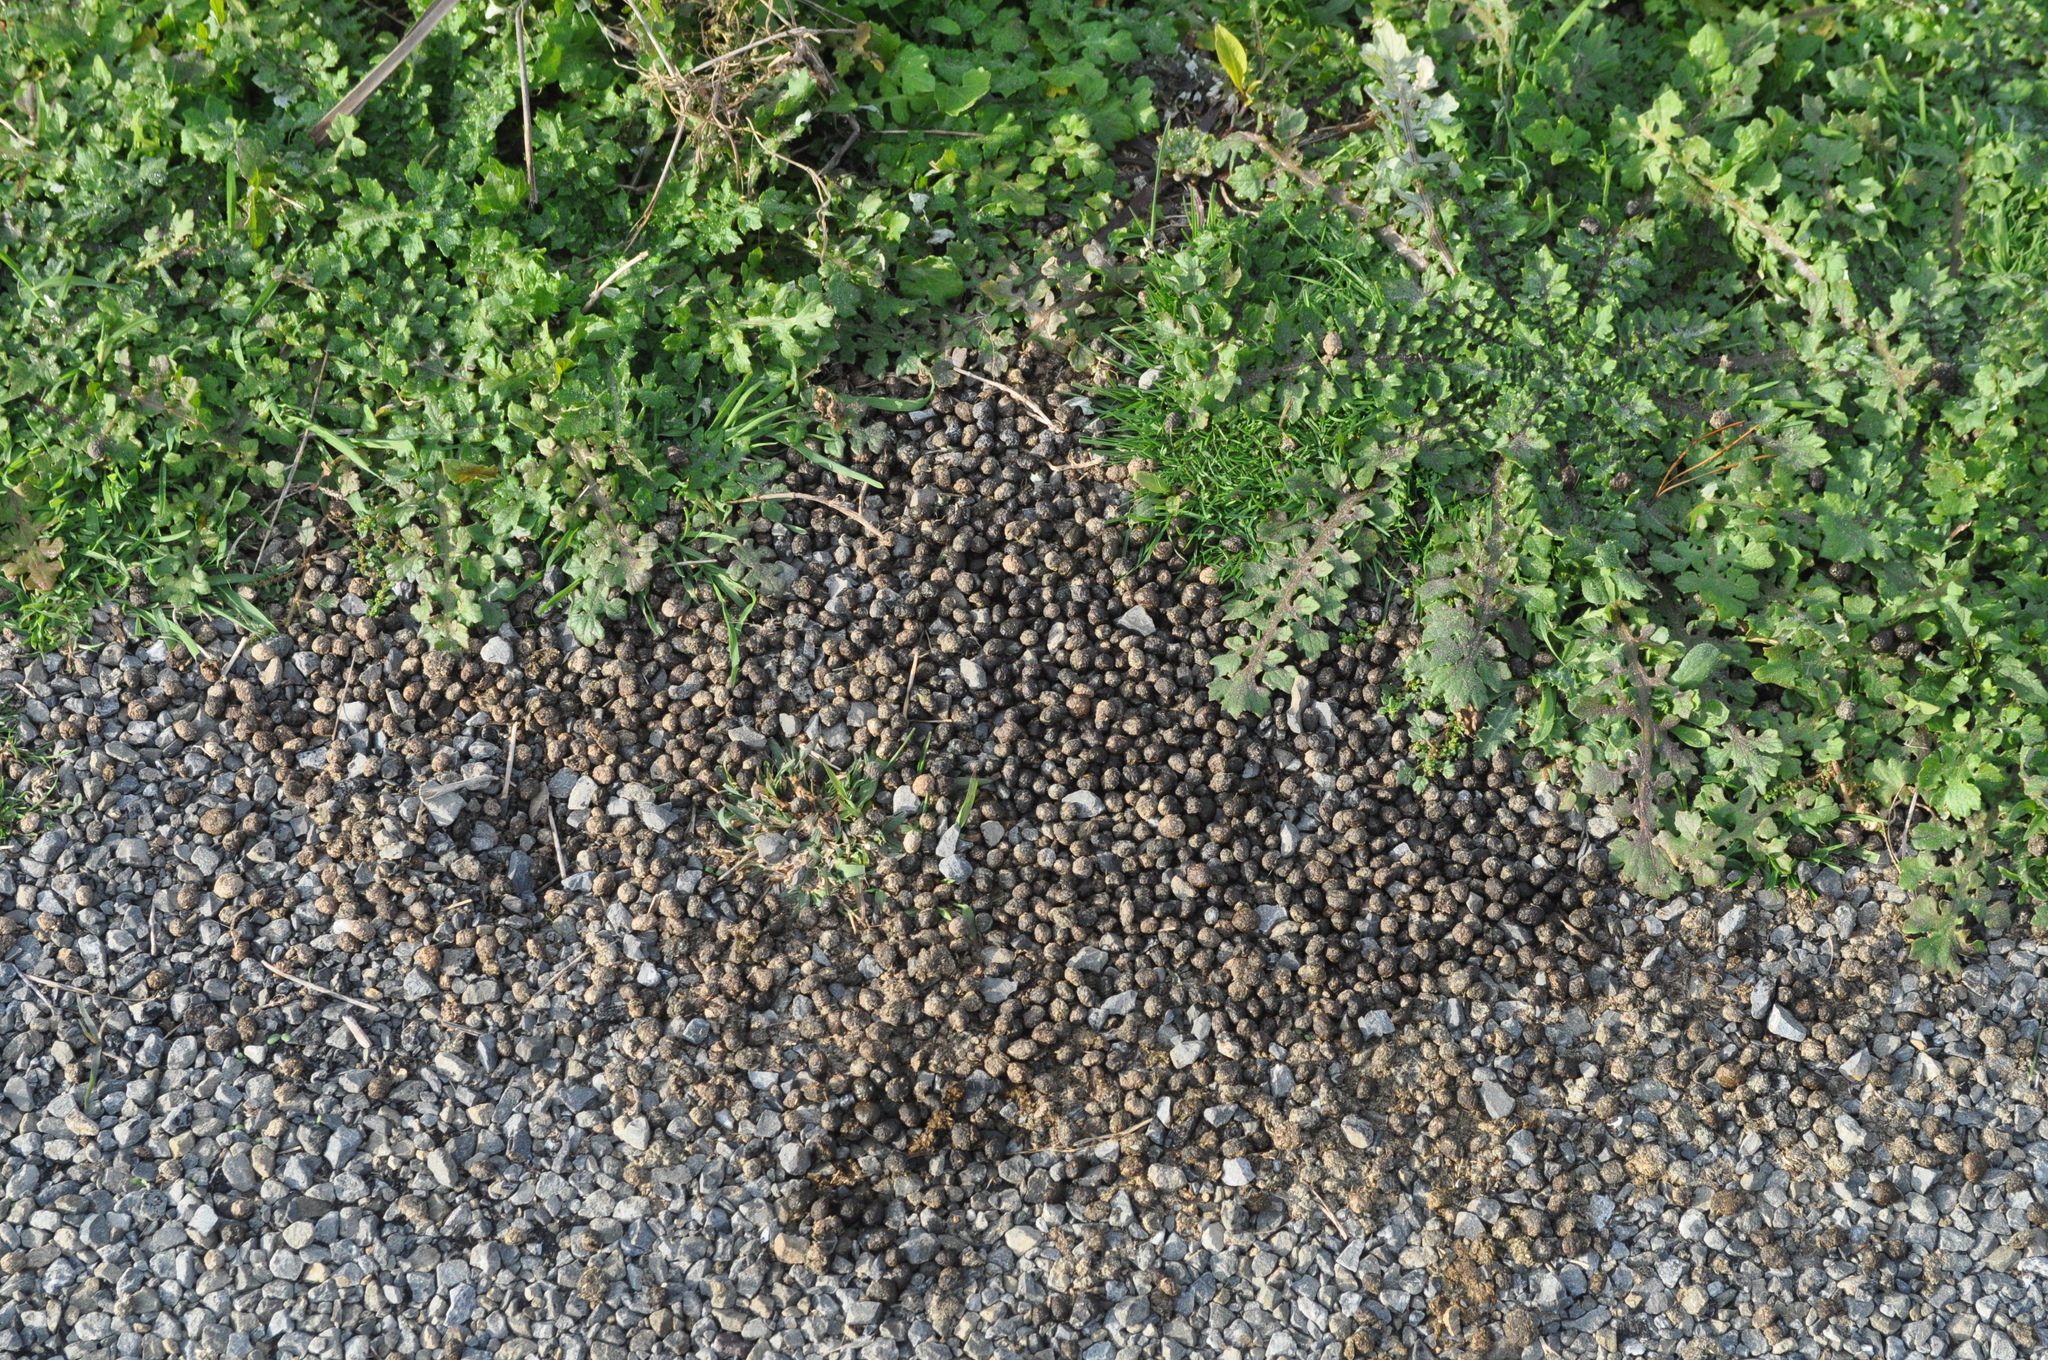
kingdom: Animalia
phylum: Chordata
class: Mammalia
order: Lagomorpha
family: Leporidae
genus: Oryctolagus
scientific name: Oryctolagus cuniculus
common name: European rabbit
